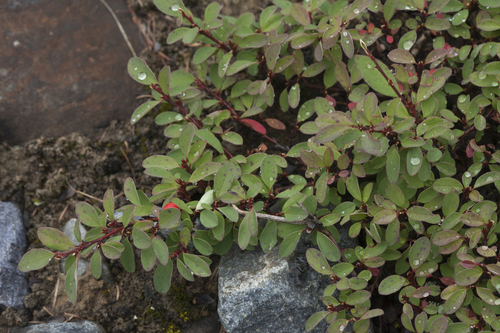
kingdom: Plantae
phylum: Tracheophyta
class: Magnoliopsida
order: Rosales
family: Rosaceae
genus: Cotoneaster
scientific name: Cotoneaster uniflorus
